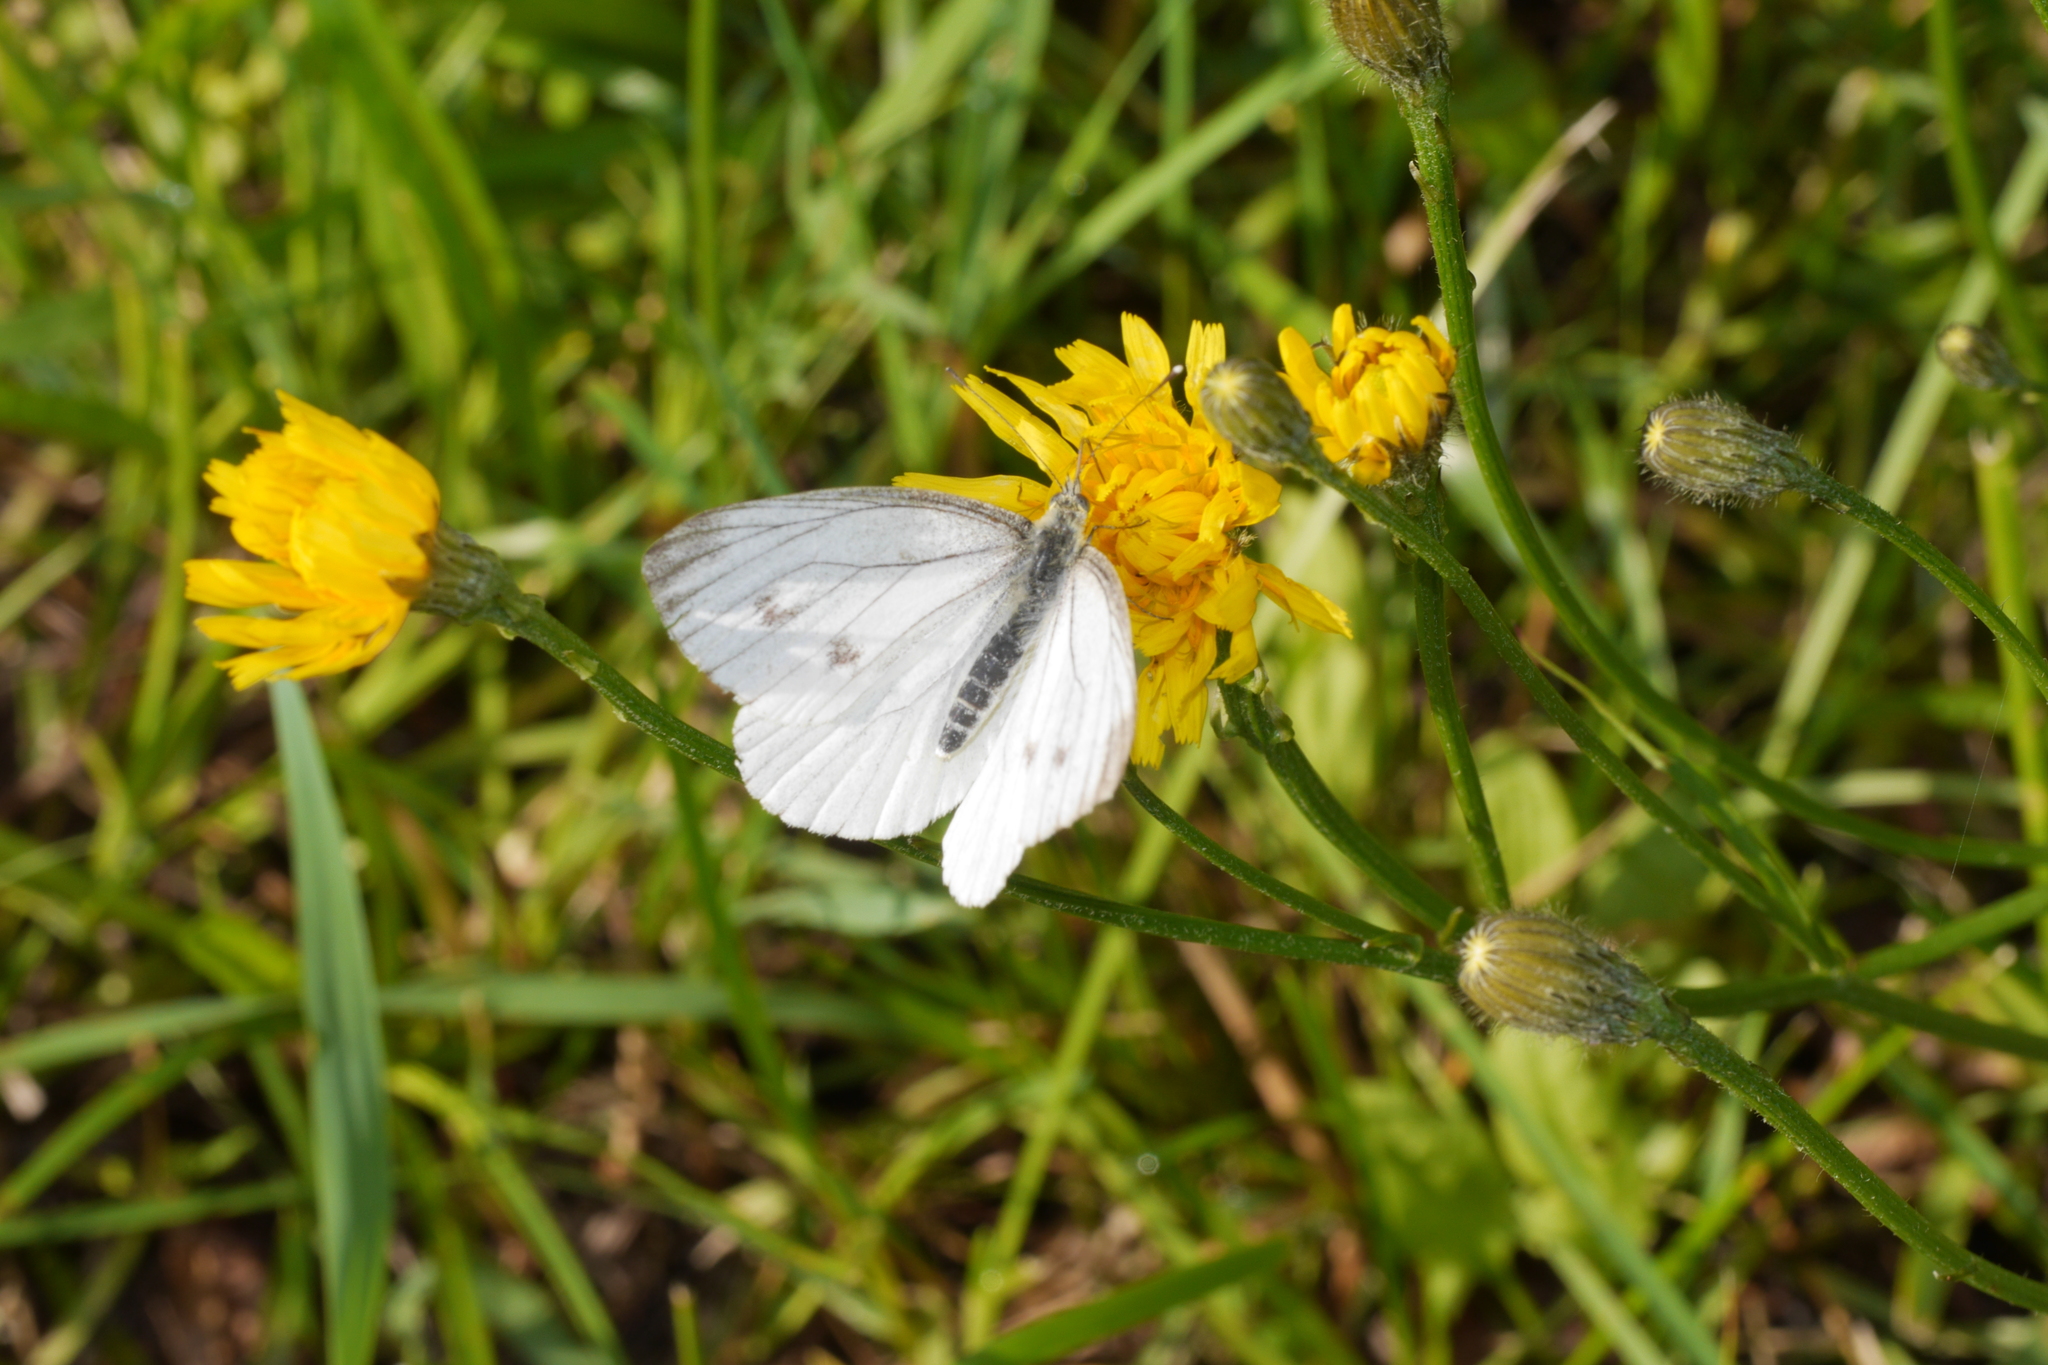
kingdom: Animalia
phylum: Arthropoda
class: Insecta
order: Lepidoptera
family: Pieridae
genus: Pieris
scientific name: Pieris napi
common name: Green-veined white
